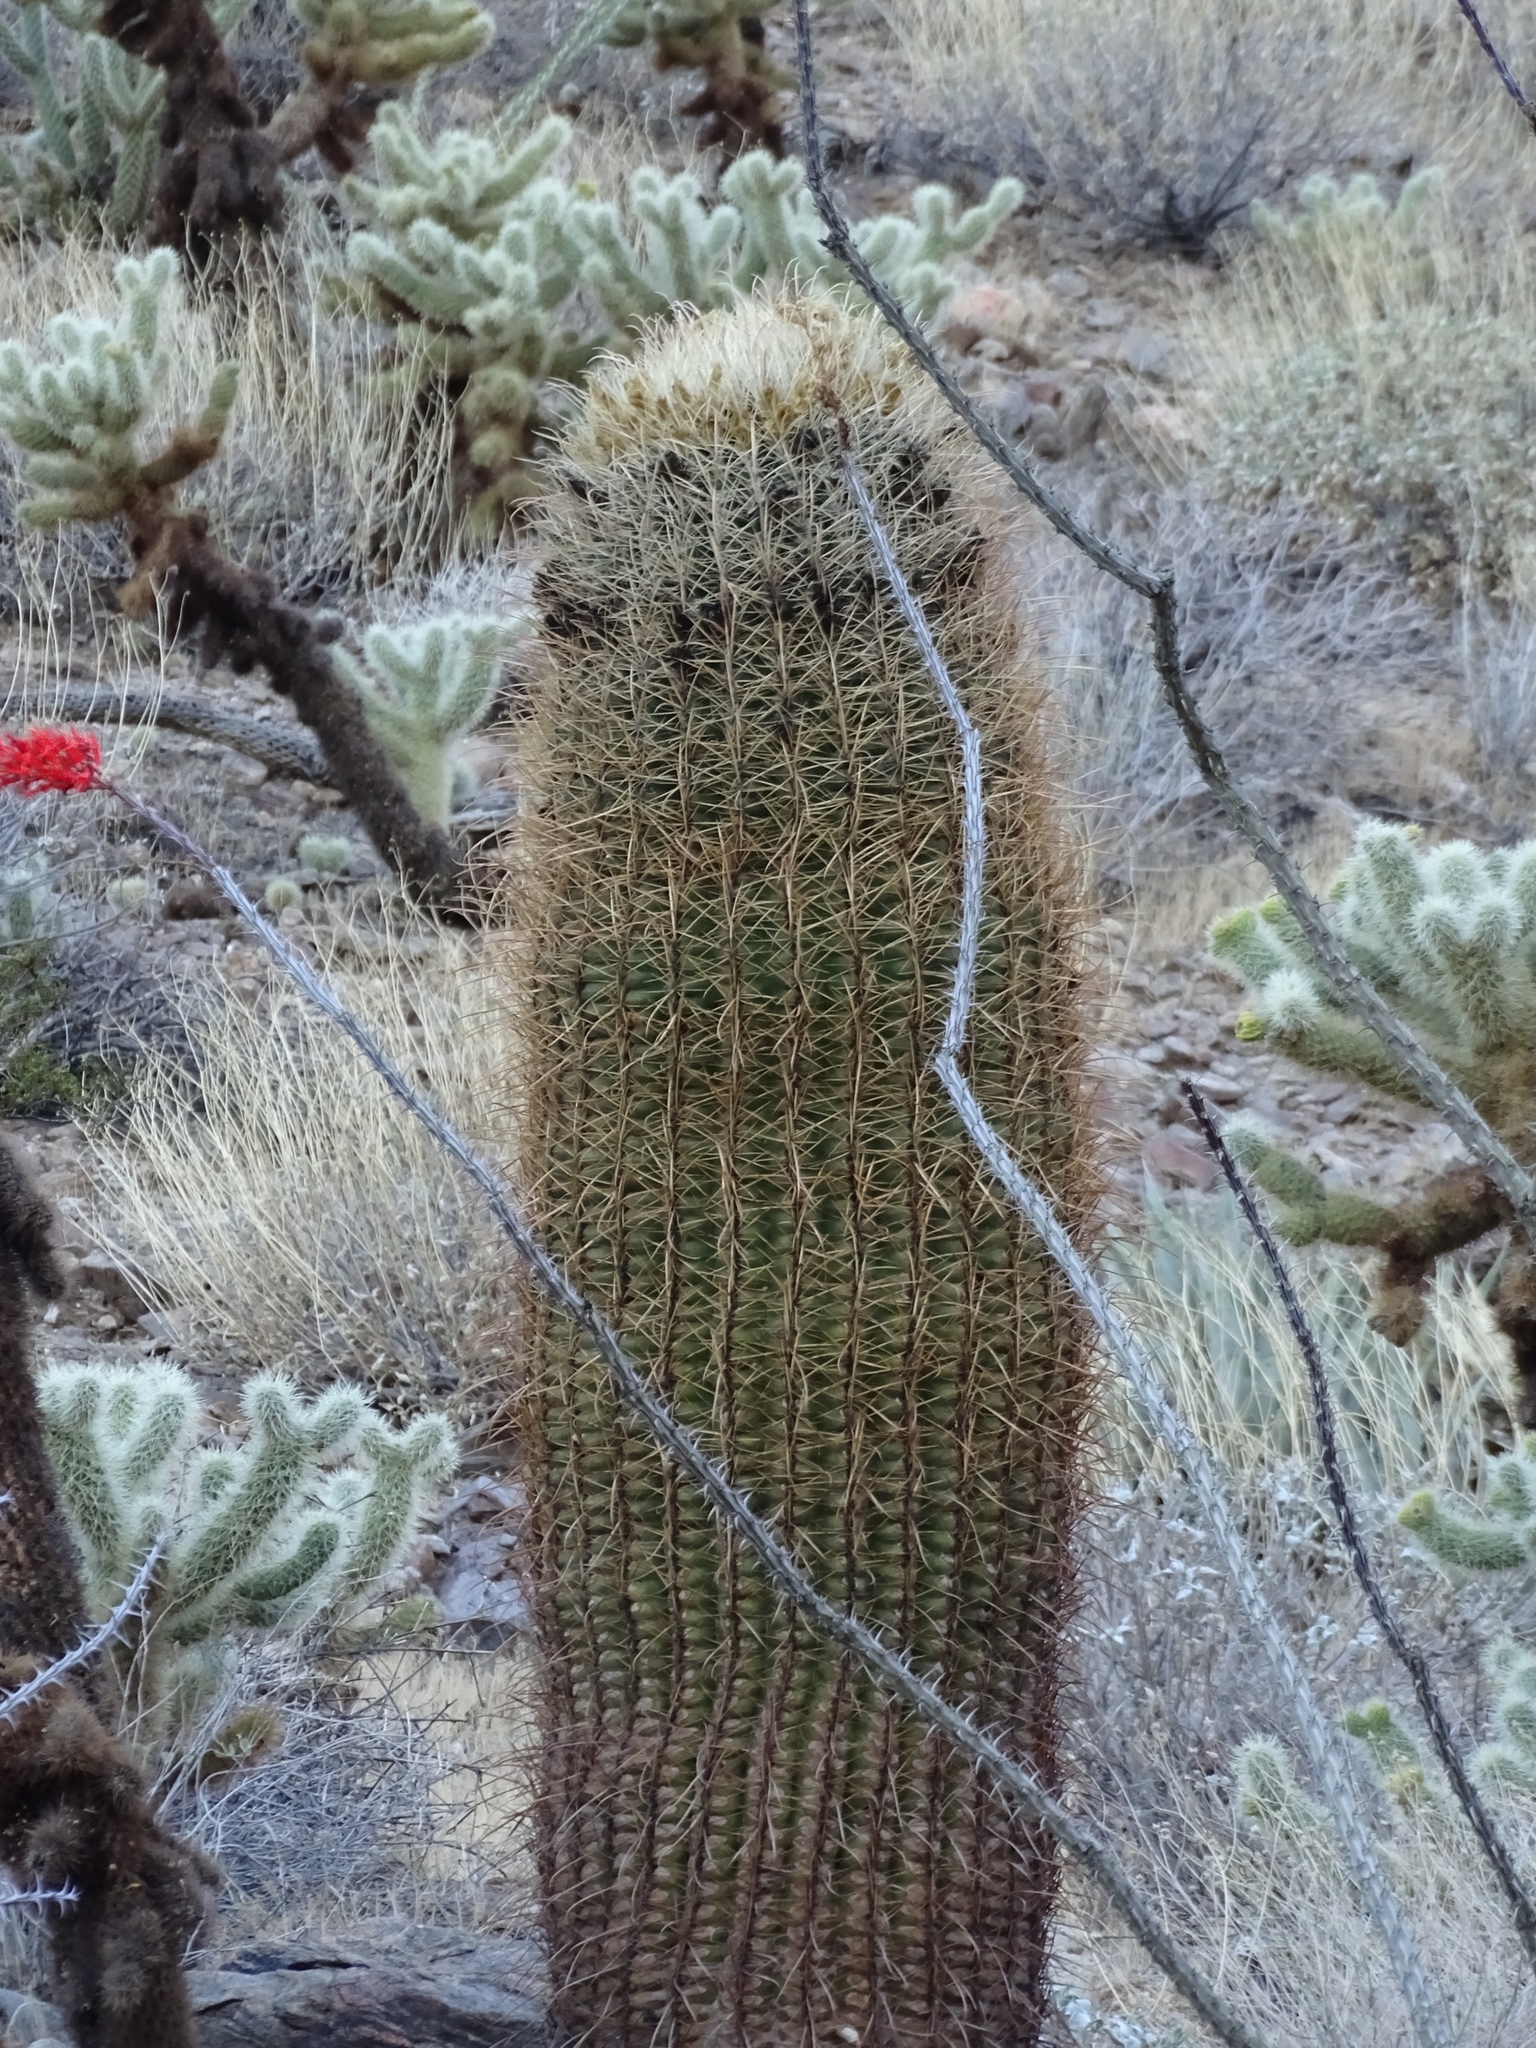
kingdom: Plantae
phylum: Tracheophyta
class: Magnoliopsida
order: Caryophyllales
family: Cactaceae
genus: Ferocactus
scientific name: Ferocactus cylindraceus
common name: California barrel cactus
